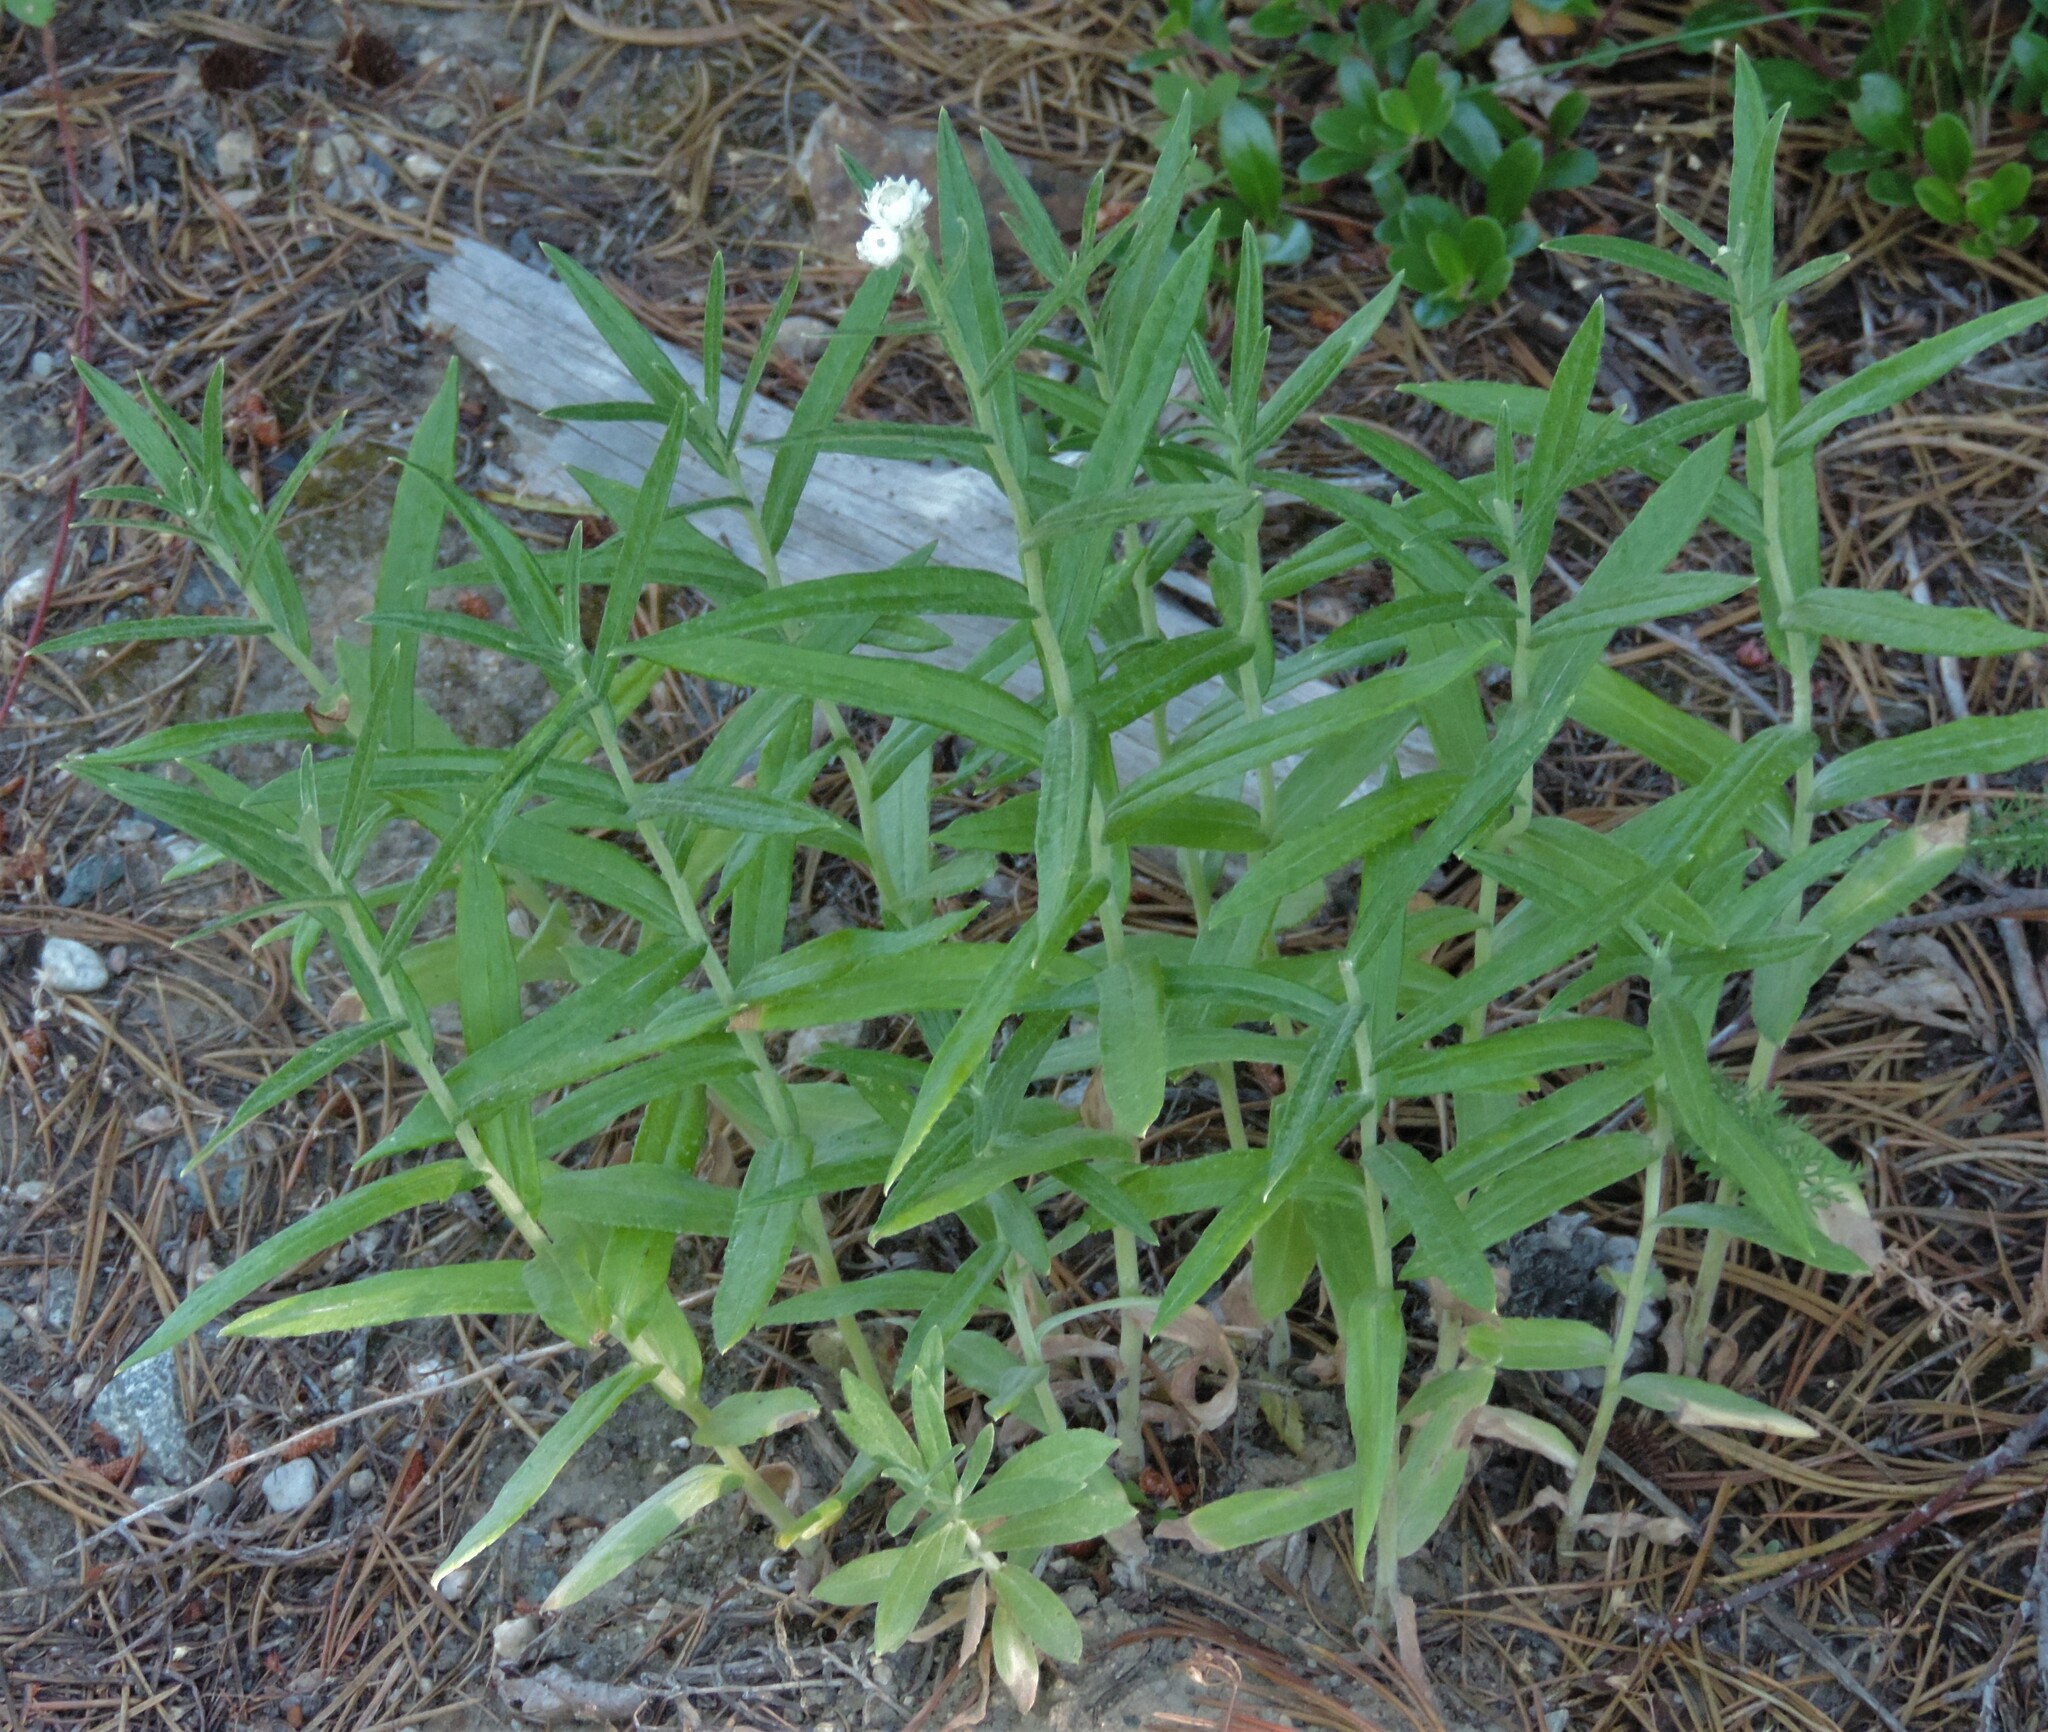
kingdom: Plantae
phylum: Tracheophyta
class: Magnoliopsida
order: Asterales
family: Asteraceae
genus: Anaphalis
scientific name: Anaphalis margaritacea
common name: Pearly everlasting
